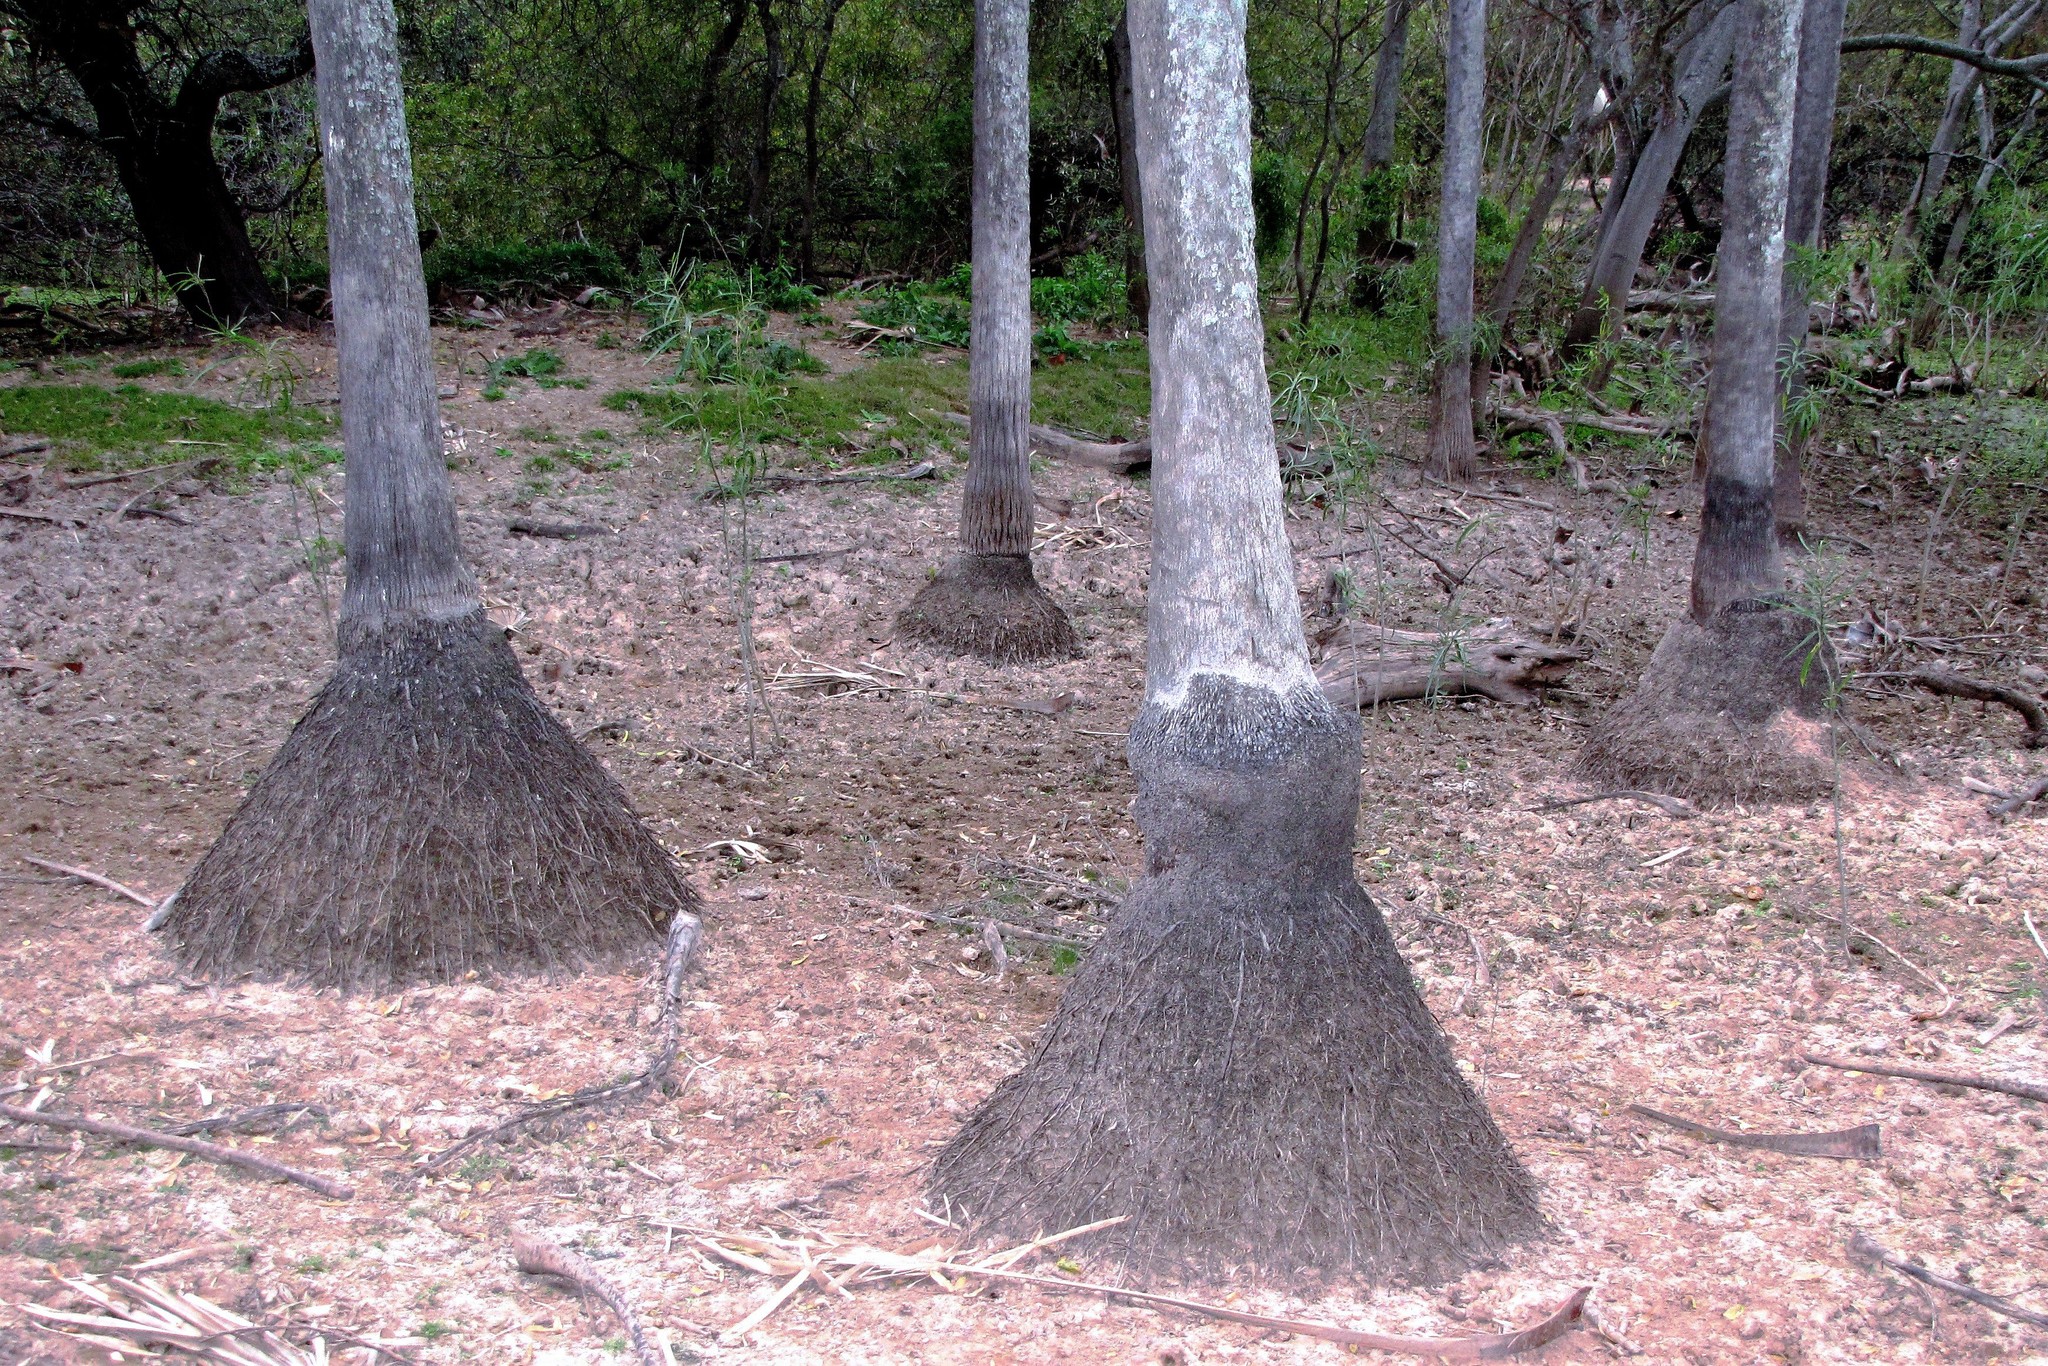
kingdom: Plantae
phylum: Tracheophyta
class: Liliopsida
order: Arecales
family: Arecaceae
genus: Copernicia
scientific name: Copernicia alba
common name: Caranday palm
